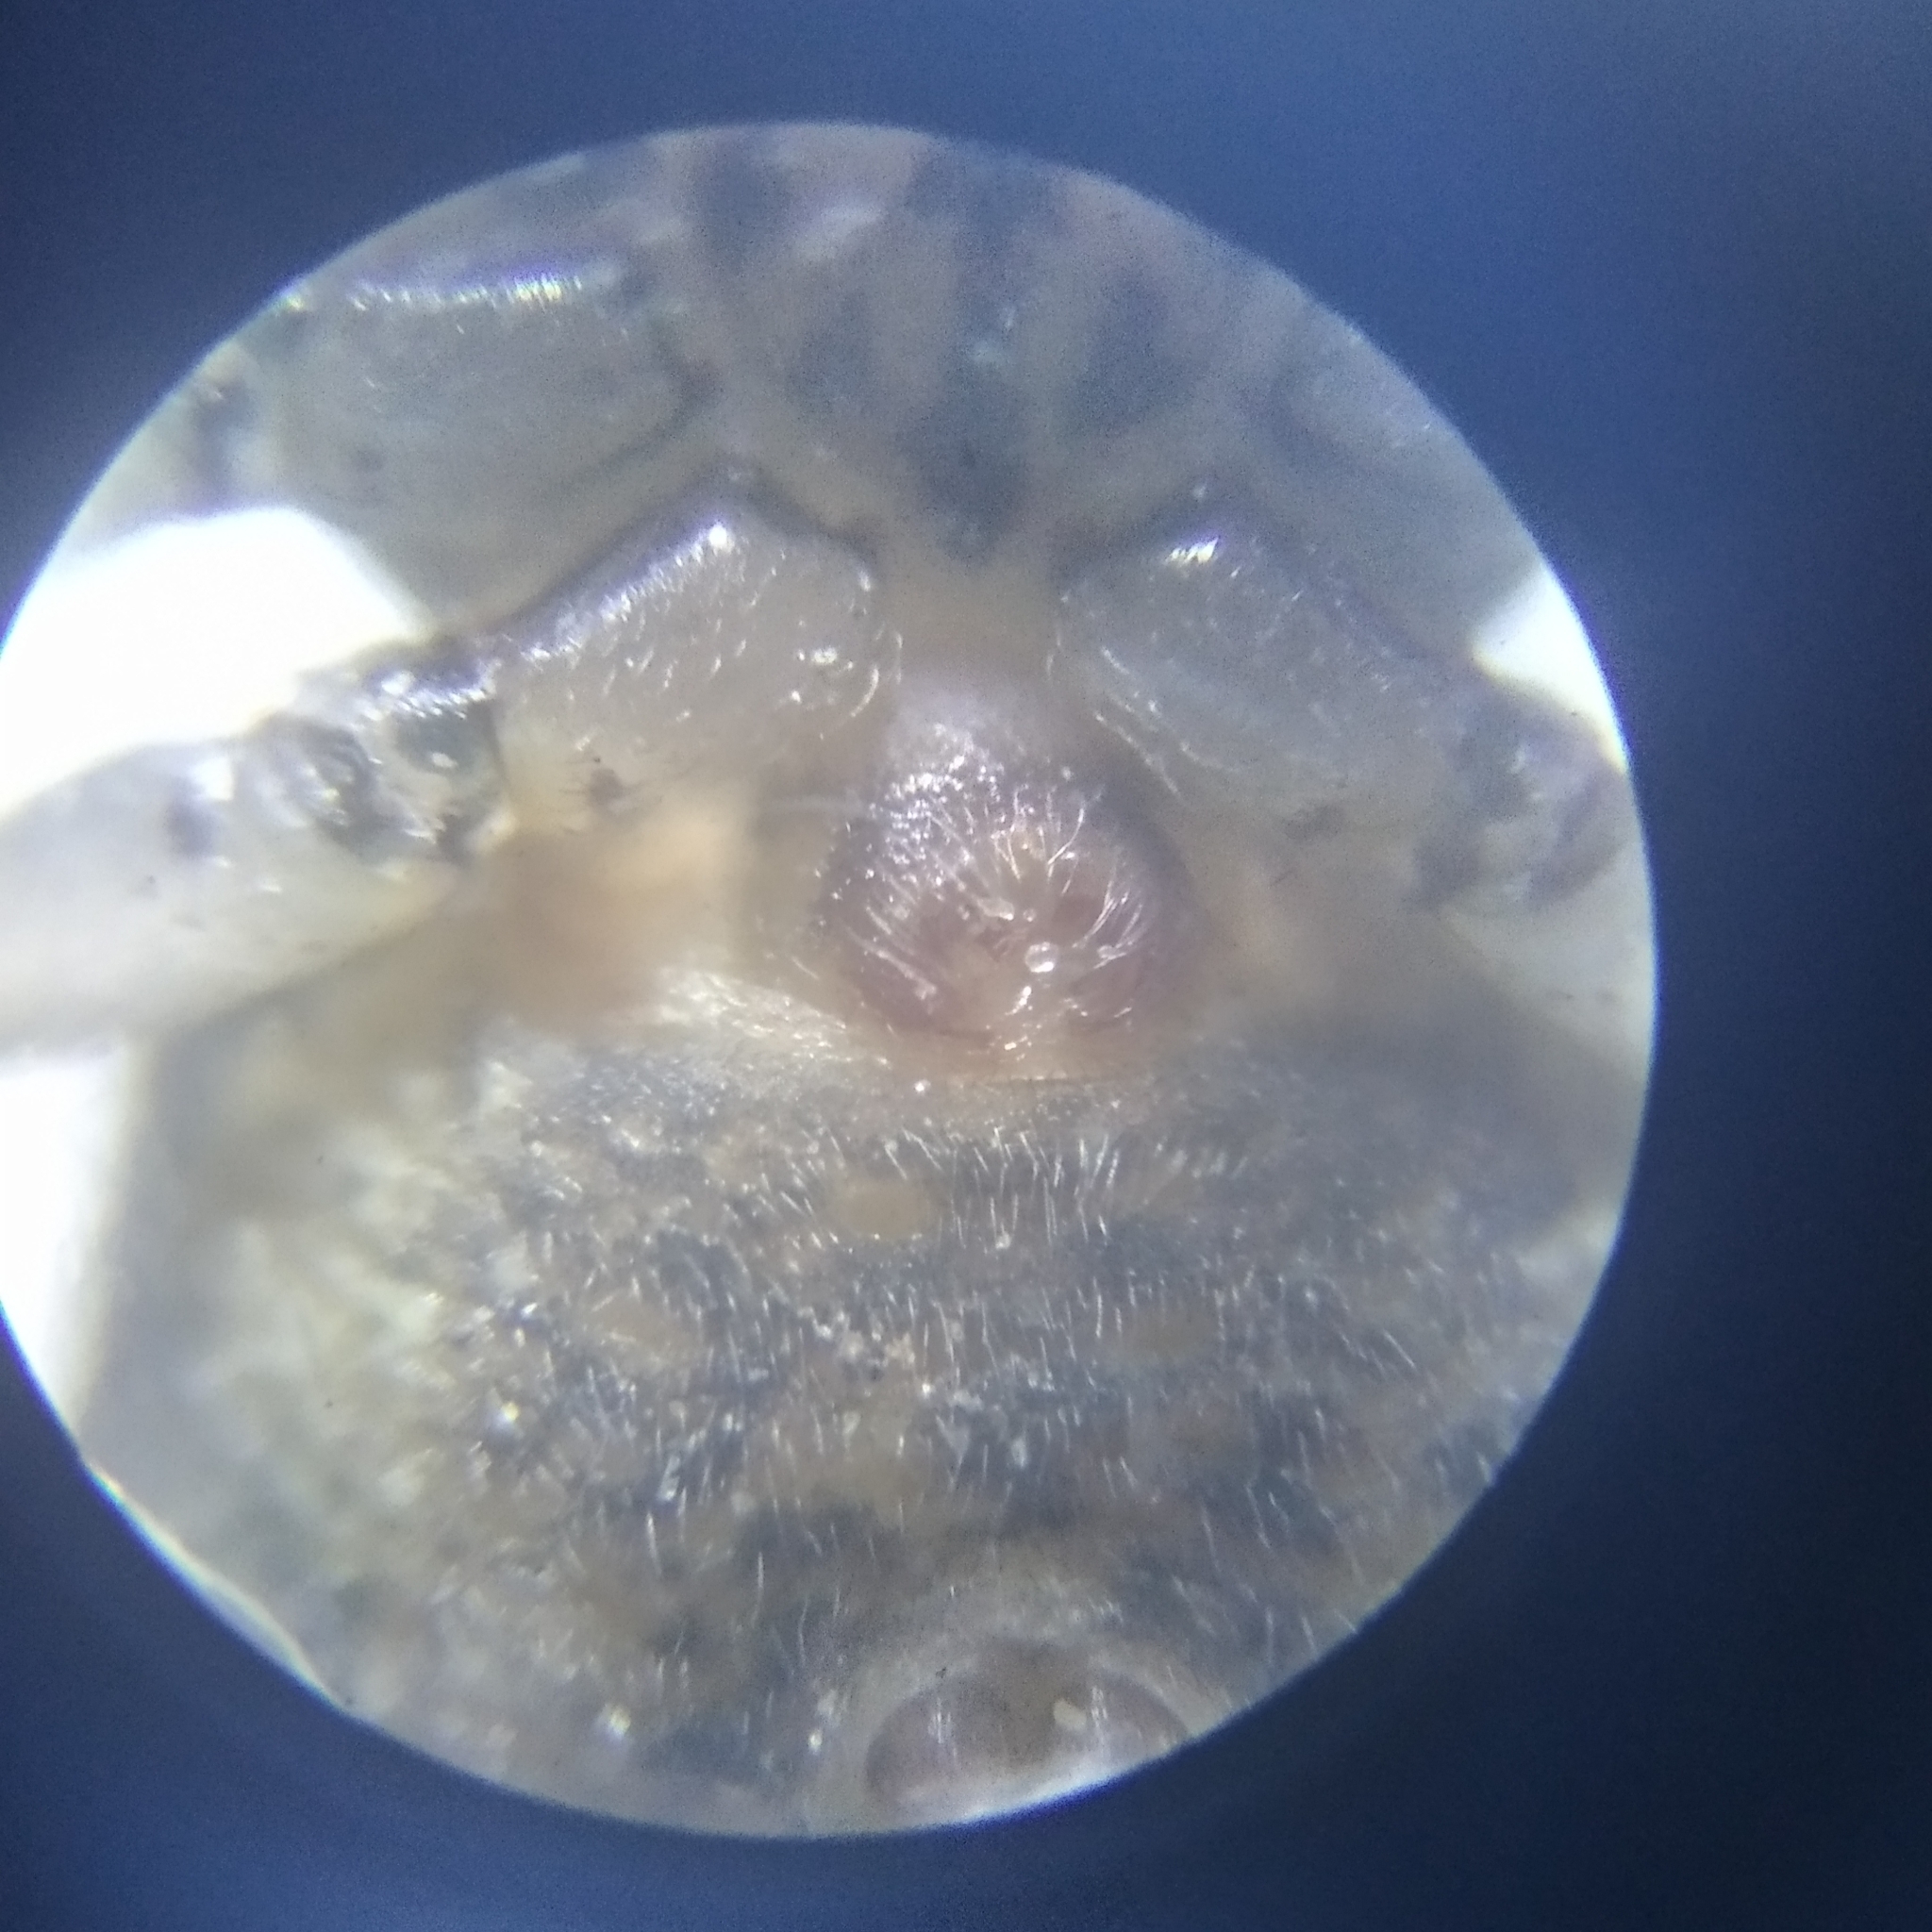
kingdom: Animalia
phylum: Arthropoda
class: Arachnida
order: Araneae
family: Thomisidae
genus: Ozyptila
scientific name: Ozyptila praticola
